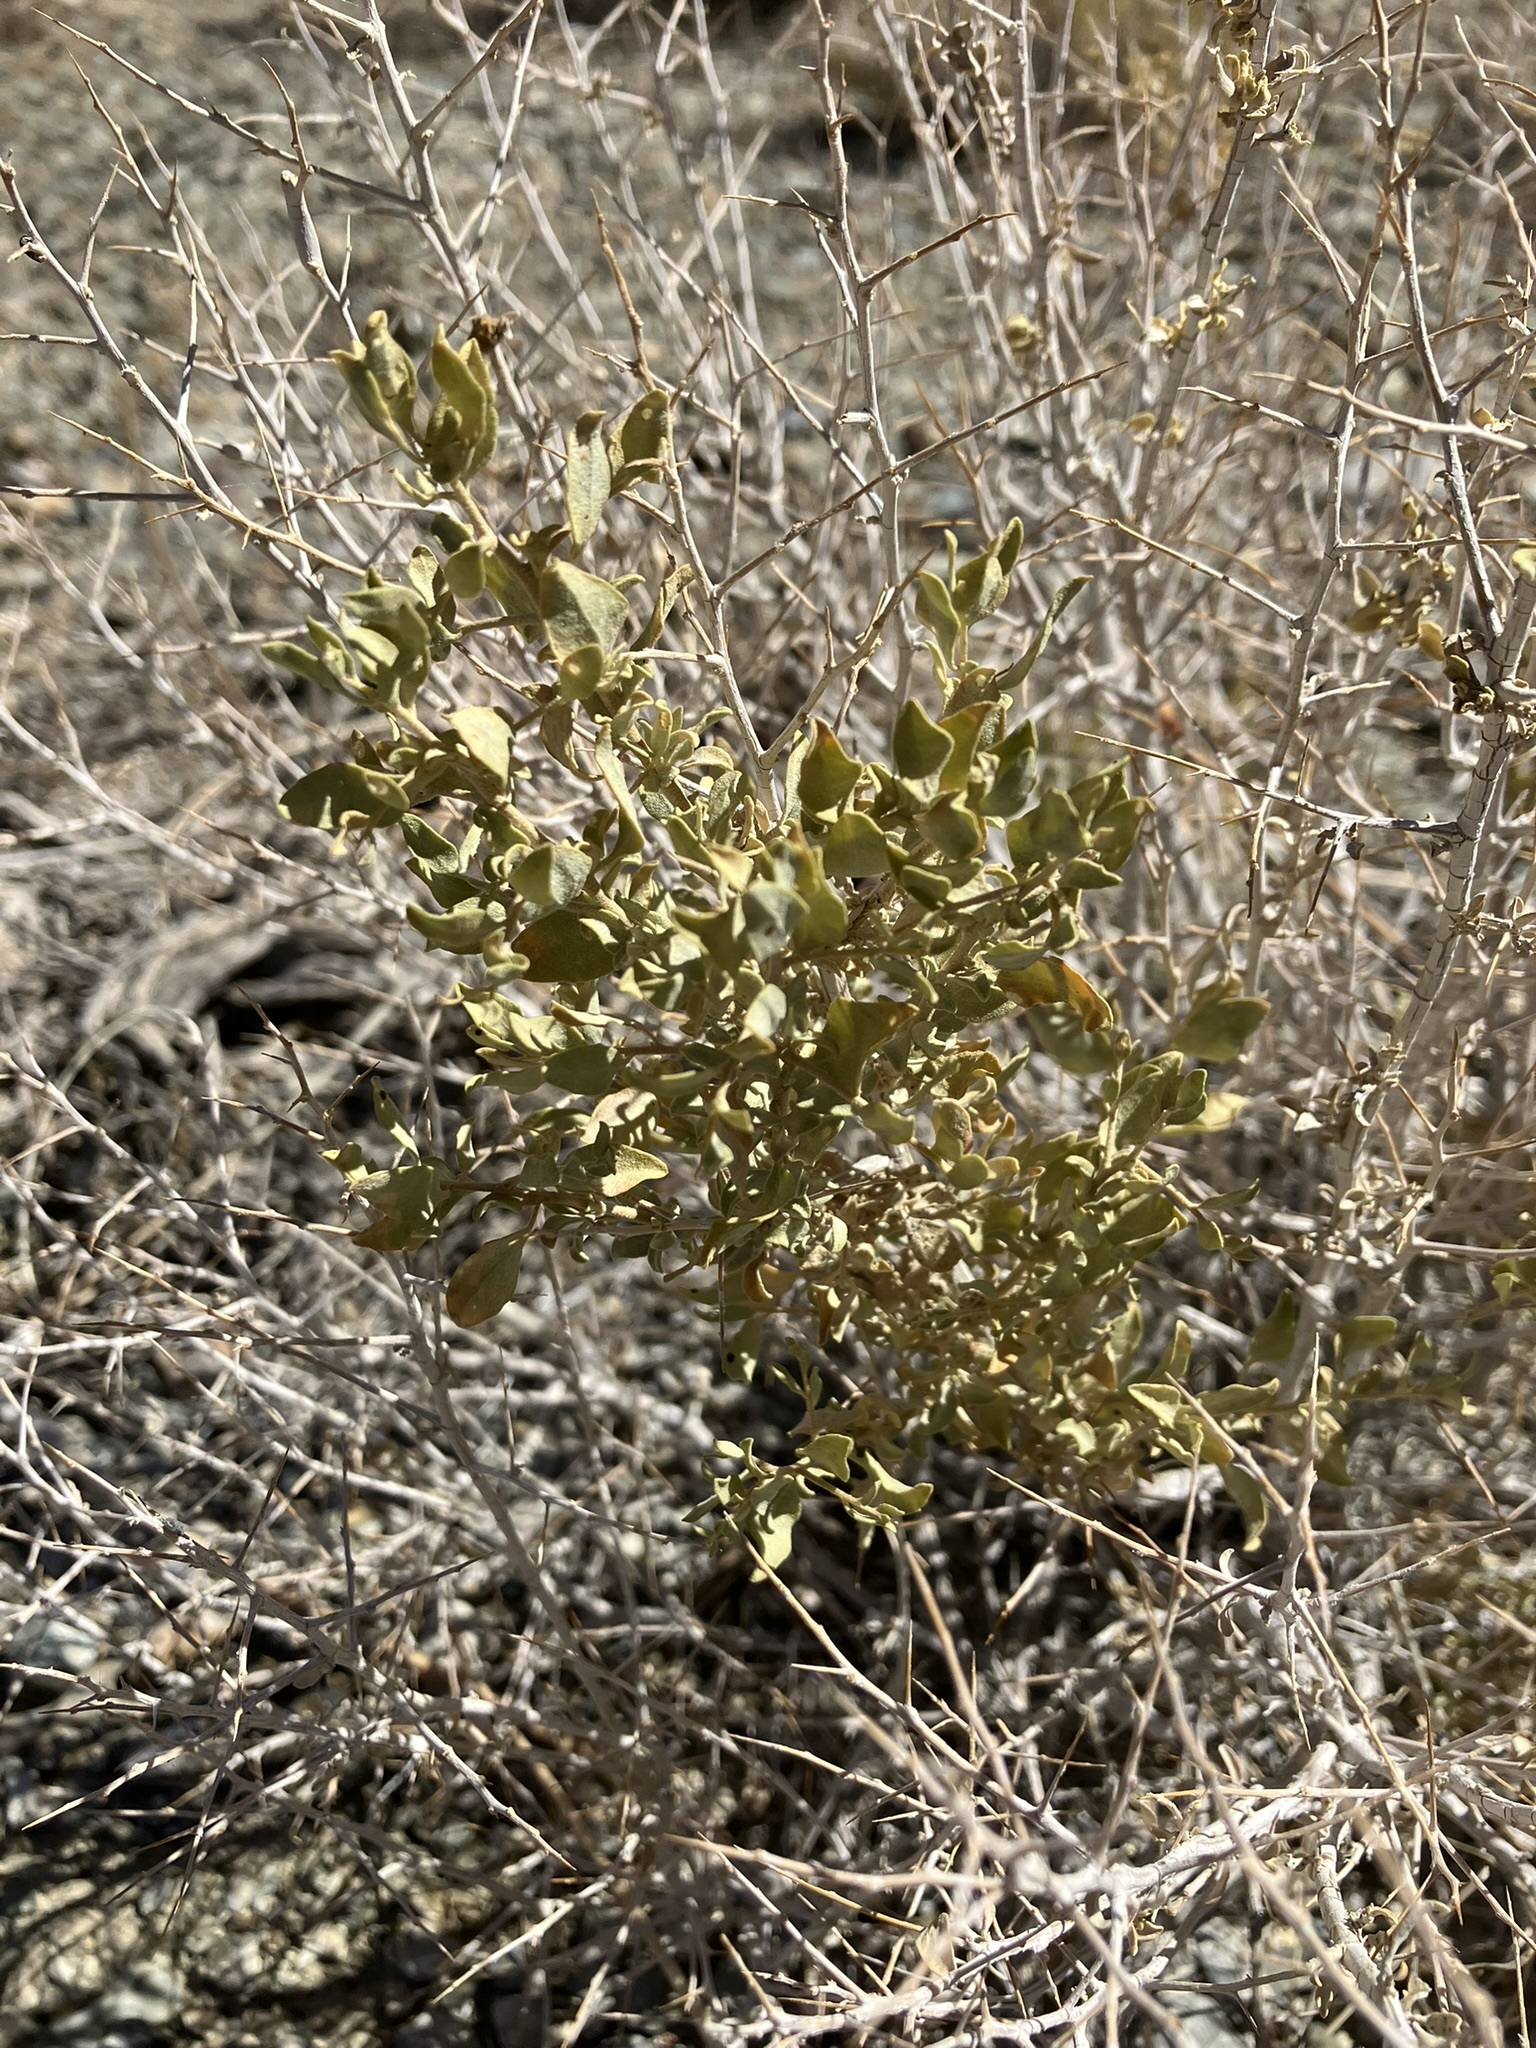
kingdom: Plantae
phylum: Tracheophyta
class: Magnoliopsida
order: Caryophyllales
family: Amaranthaceae
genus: Atriplex
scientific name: Atriplex confertifolia
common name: Shadscale
